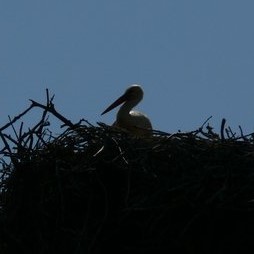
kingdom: Animalia
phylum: Chordata
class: Aves
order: Ciconiiformes
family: Ciconiidae
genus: Ciconia
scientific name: Ciconia ciconia
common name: White stork
